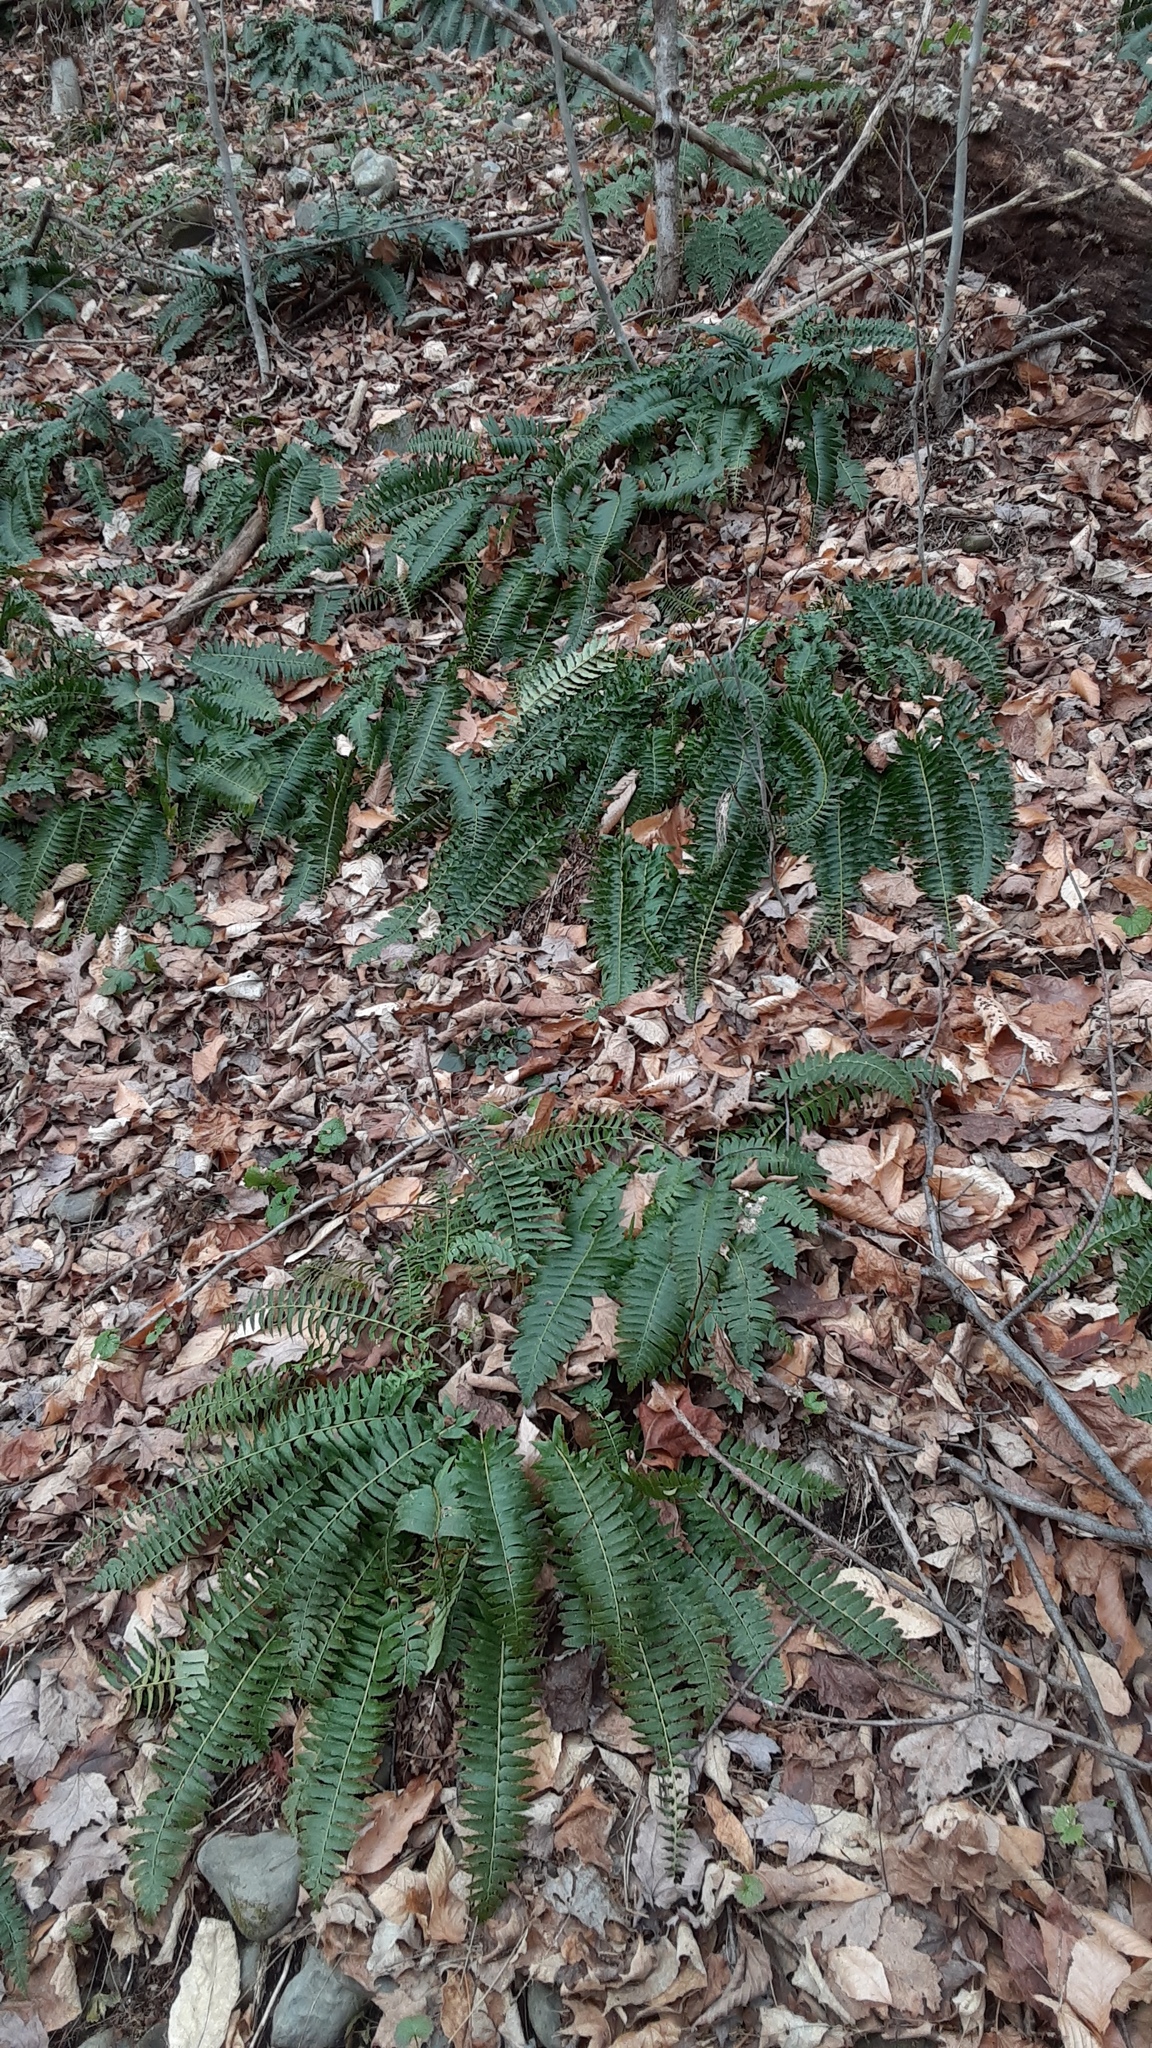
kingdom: Plantae
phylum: Tracheophyta
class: Polypodiopsida
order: Polypodiales
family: Dryopteridaceae
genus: Polystichum
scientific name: Polystichum acrostichoides
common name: Christmas fern
